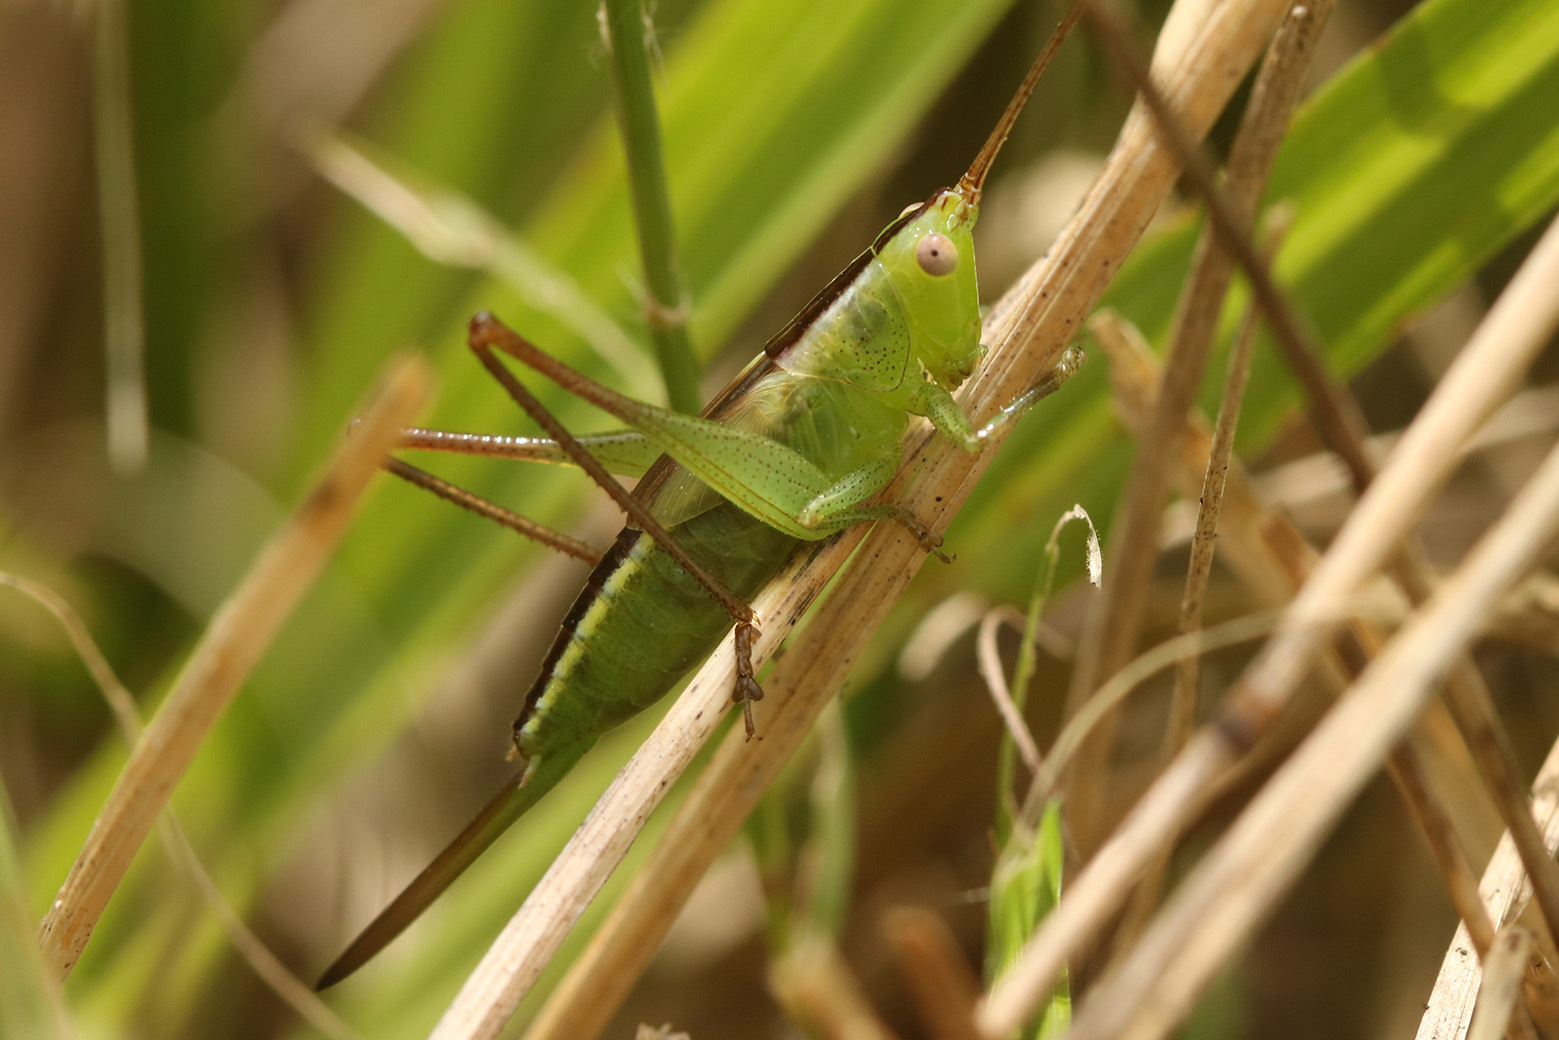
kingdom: Animalia
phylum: Arthropoda
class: Insecta
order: Orthoptera
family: Tettigoniidae
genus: Conocephalus
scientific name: Conocephalus longipes
